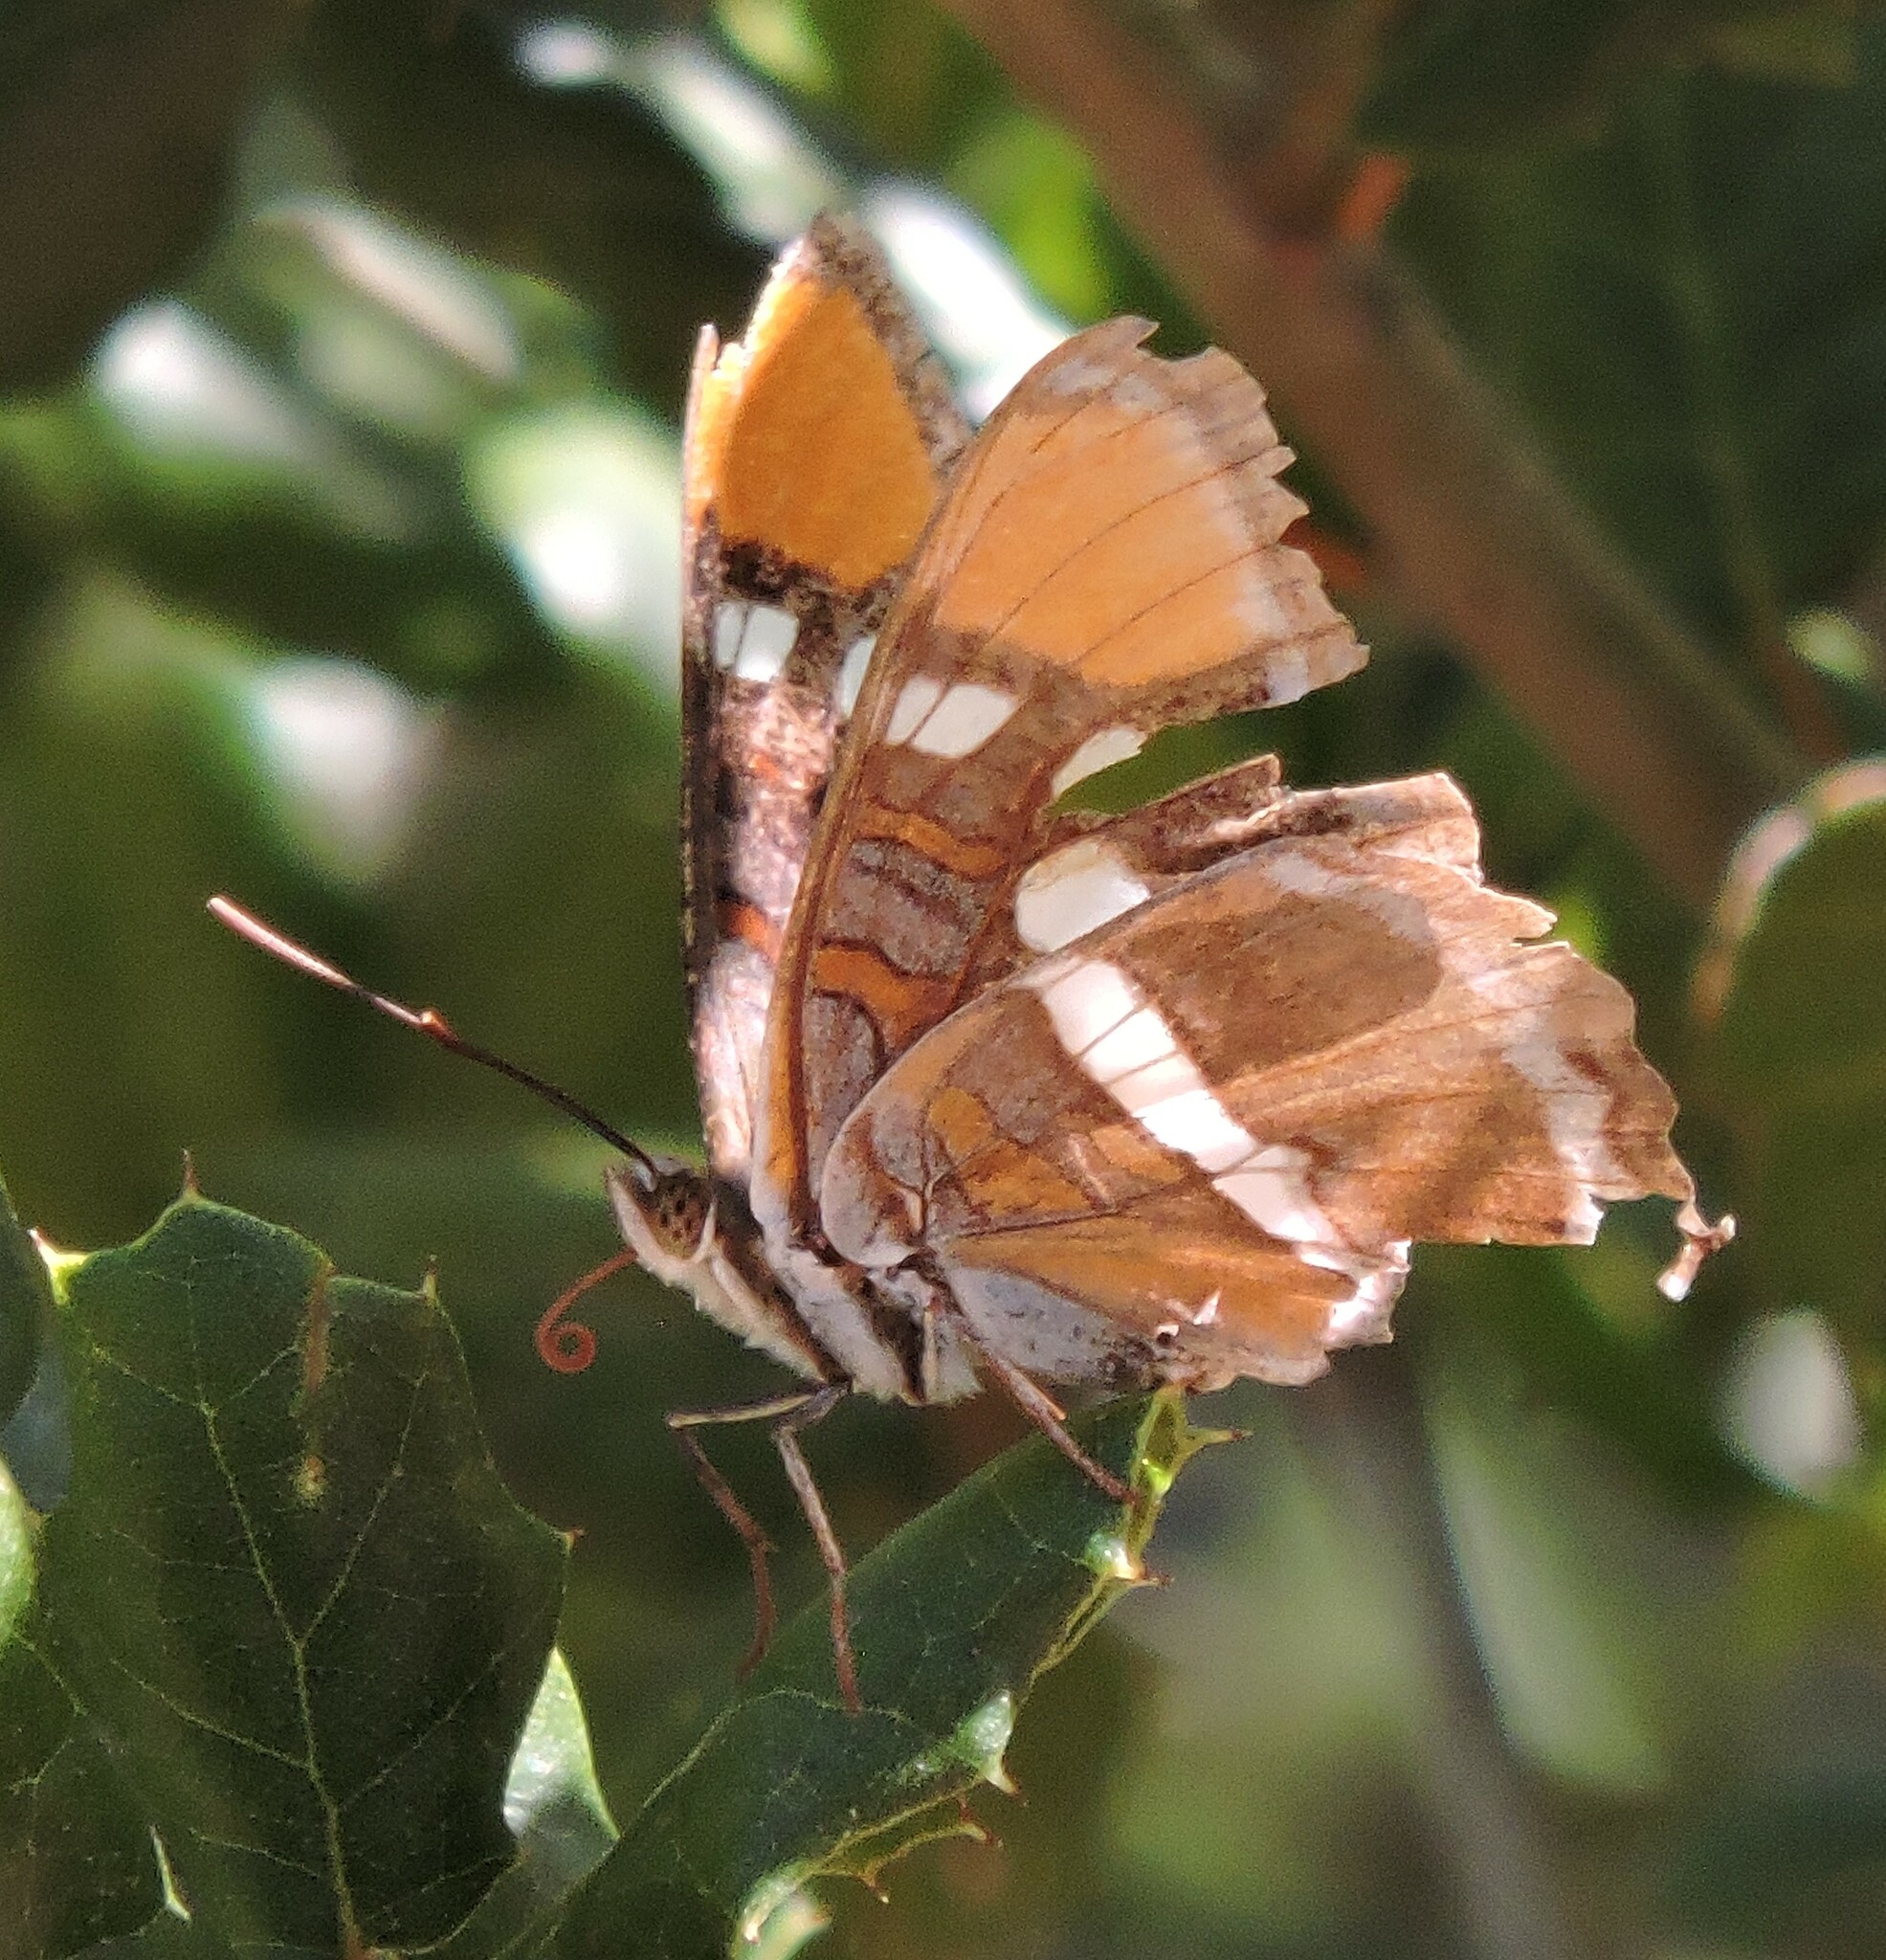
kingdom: Animalia
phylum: Arthropoda
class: Insecta
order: Lepidoptera
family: Nymphalidae
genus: Limenitis
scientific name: Limenitis bredowii
